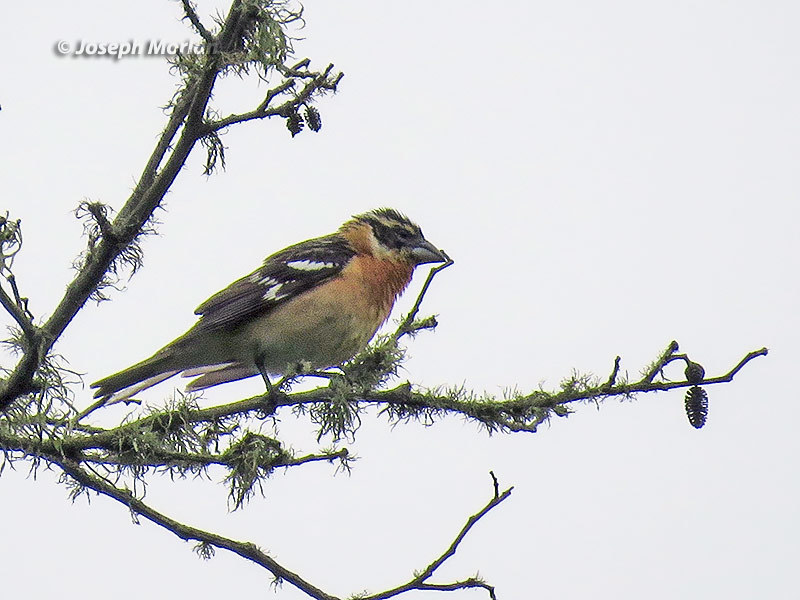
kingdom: Animalia
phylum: Chordata
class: Aves
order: Passeriformes
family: Cardinalidae
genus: Pheucticus
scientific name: Pheucticus melanocephalus
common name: Black-headed grosbeak
